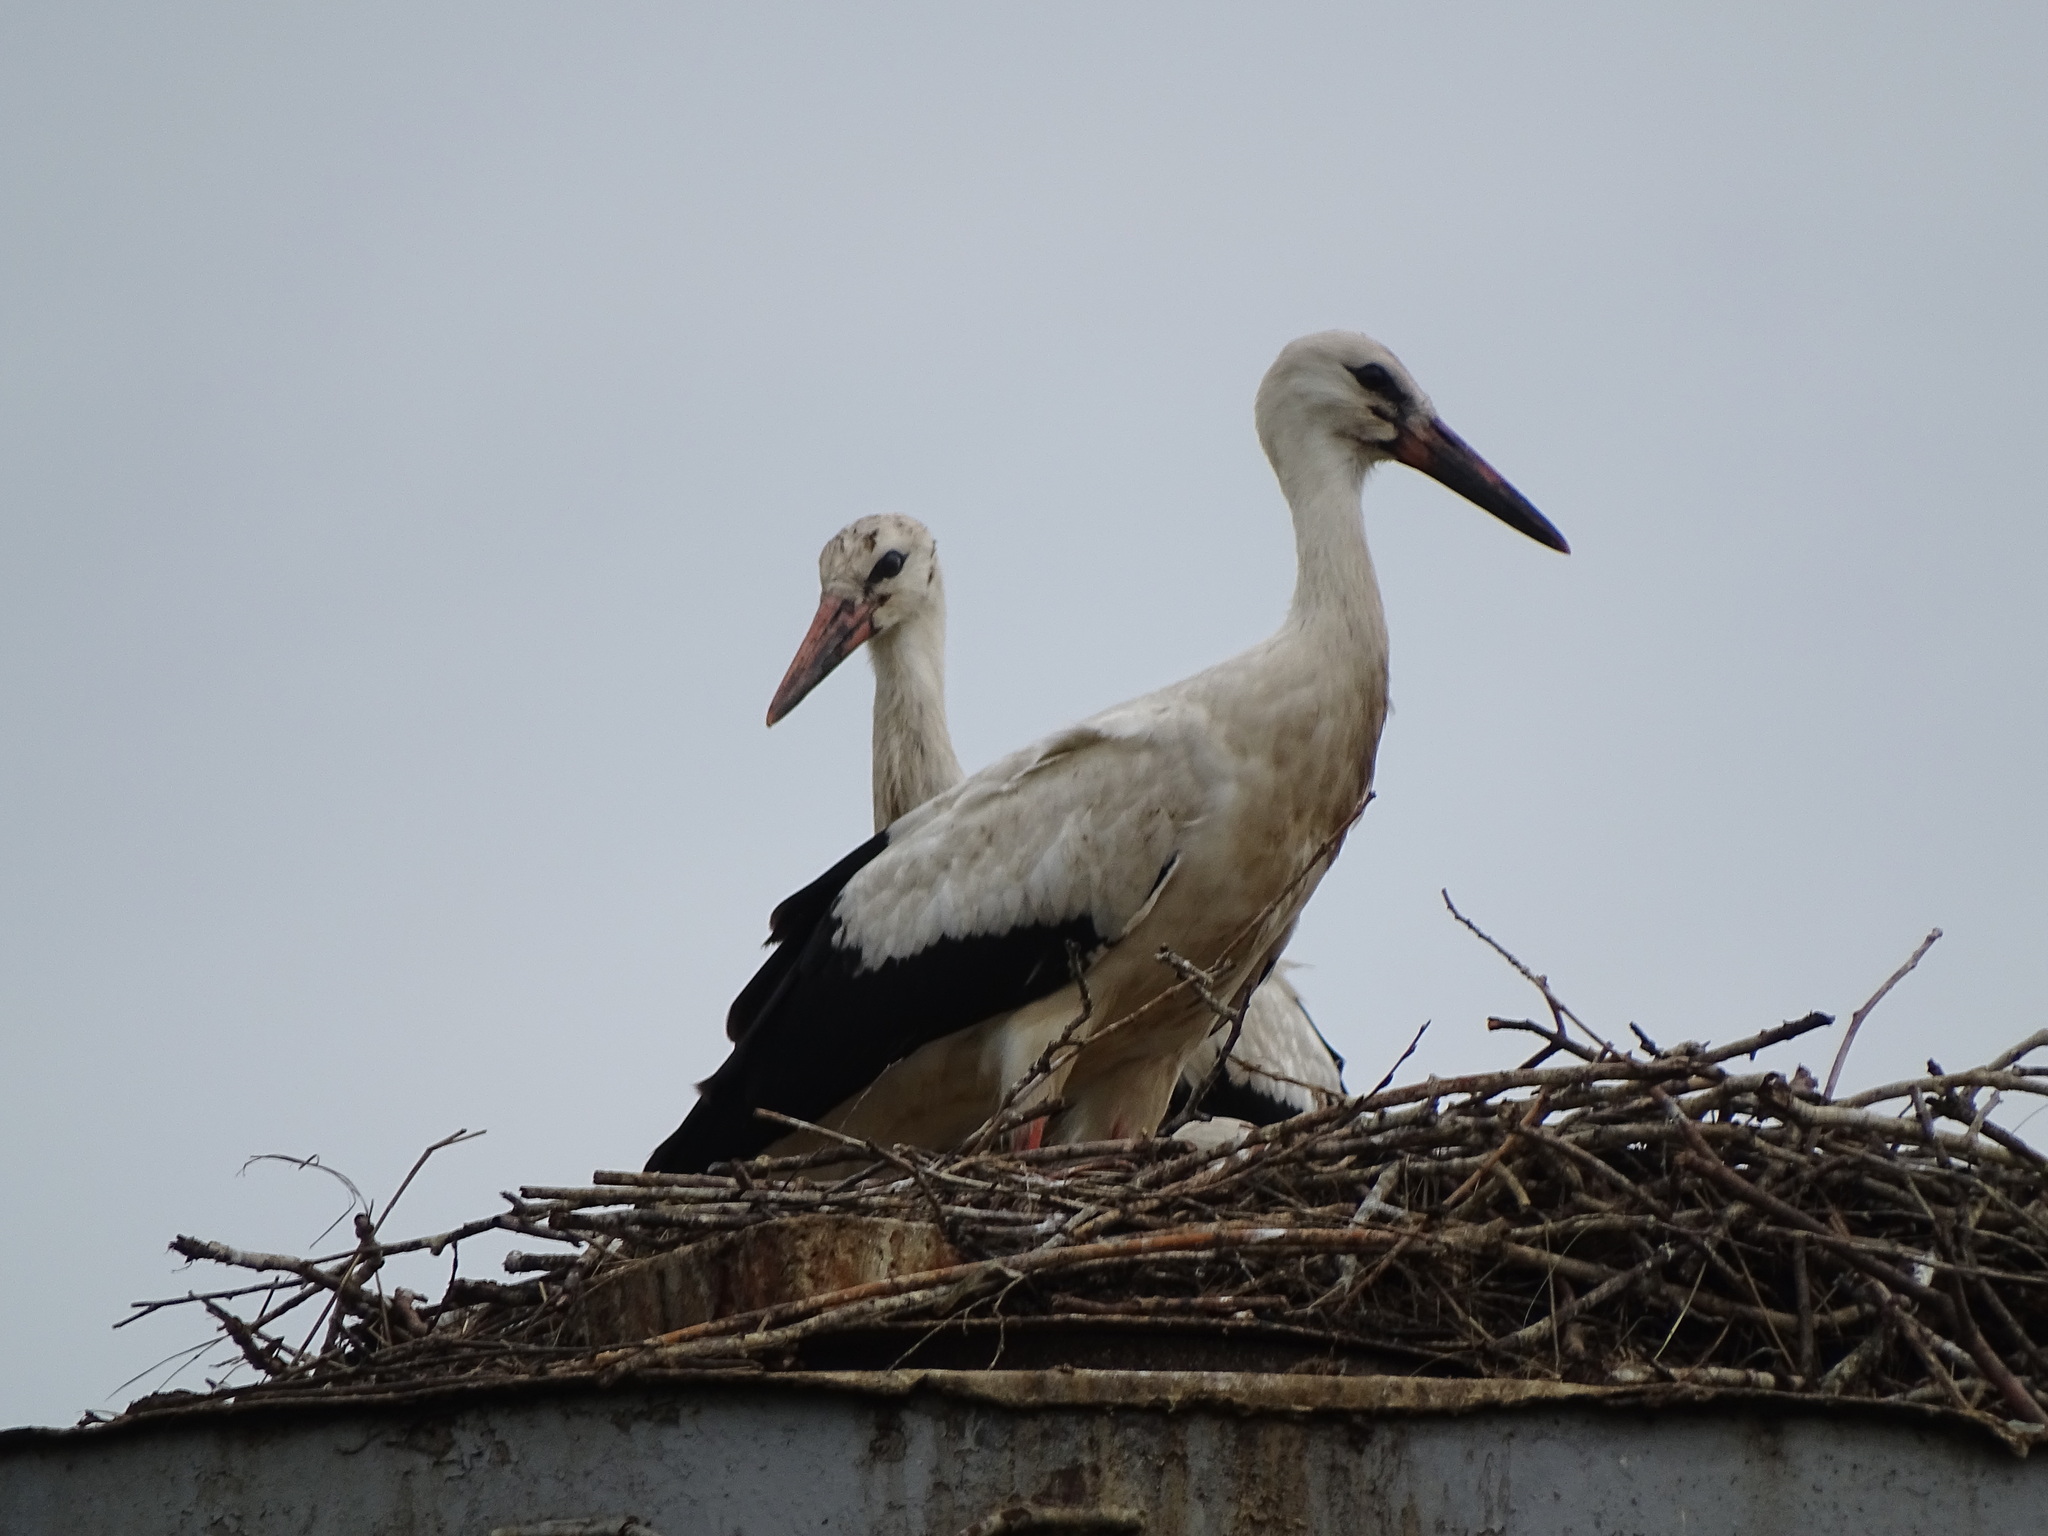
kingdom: Animalia
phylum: Chordata
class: Aves
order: Ciconiiformes
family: Ciconiidae
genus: Ciconia
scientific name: Ciconia ciconia
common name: White stork
